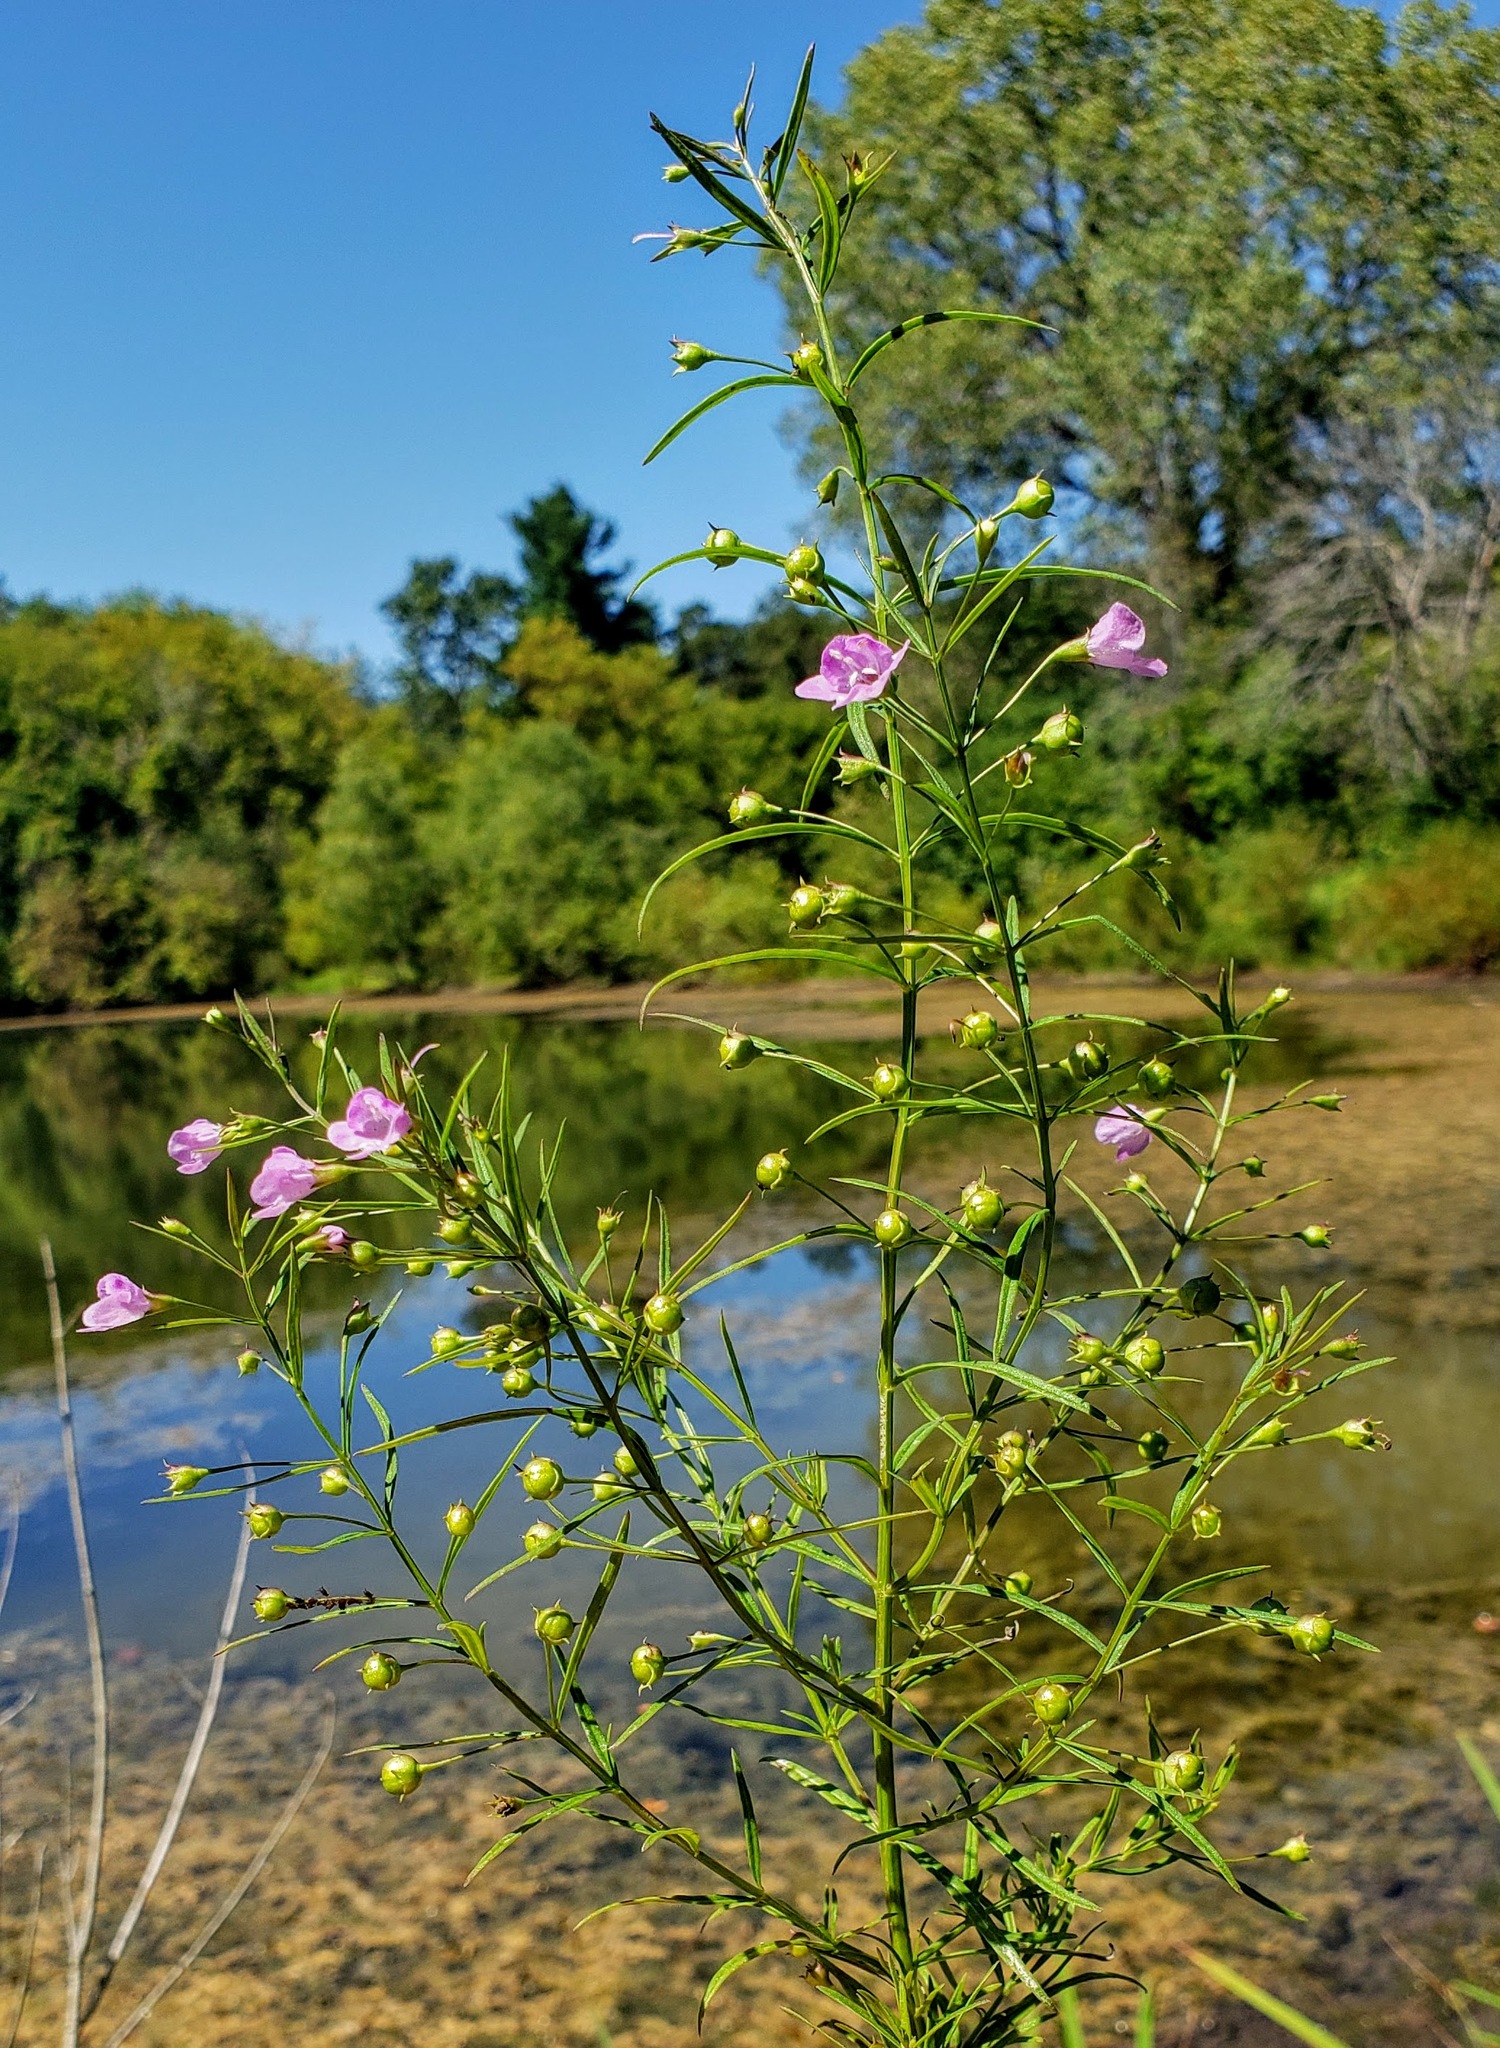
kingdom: Plantae
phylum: Tracheophyta
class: Magnoliopsida
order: Lamiales
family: Orobanchaceae
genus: Agalinis
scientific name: Agalinis tenuifolia
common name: Slender agalinis
